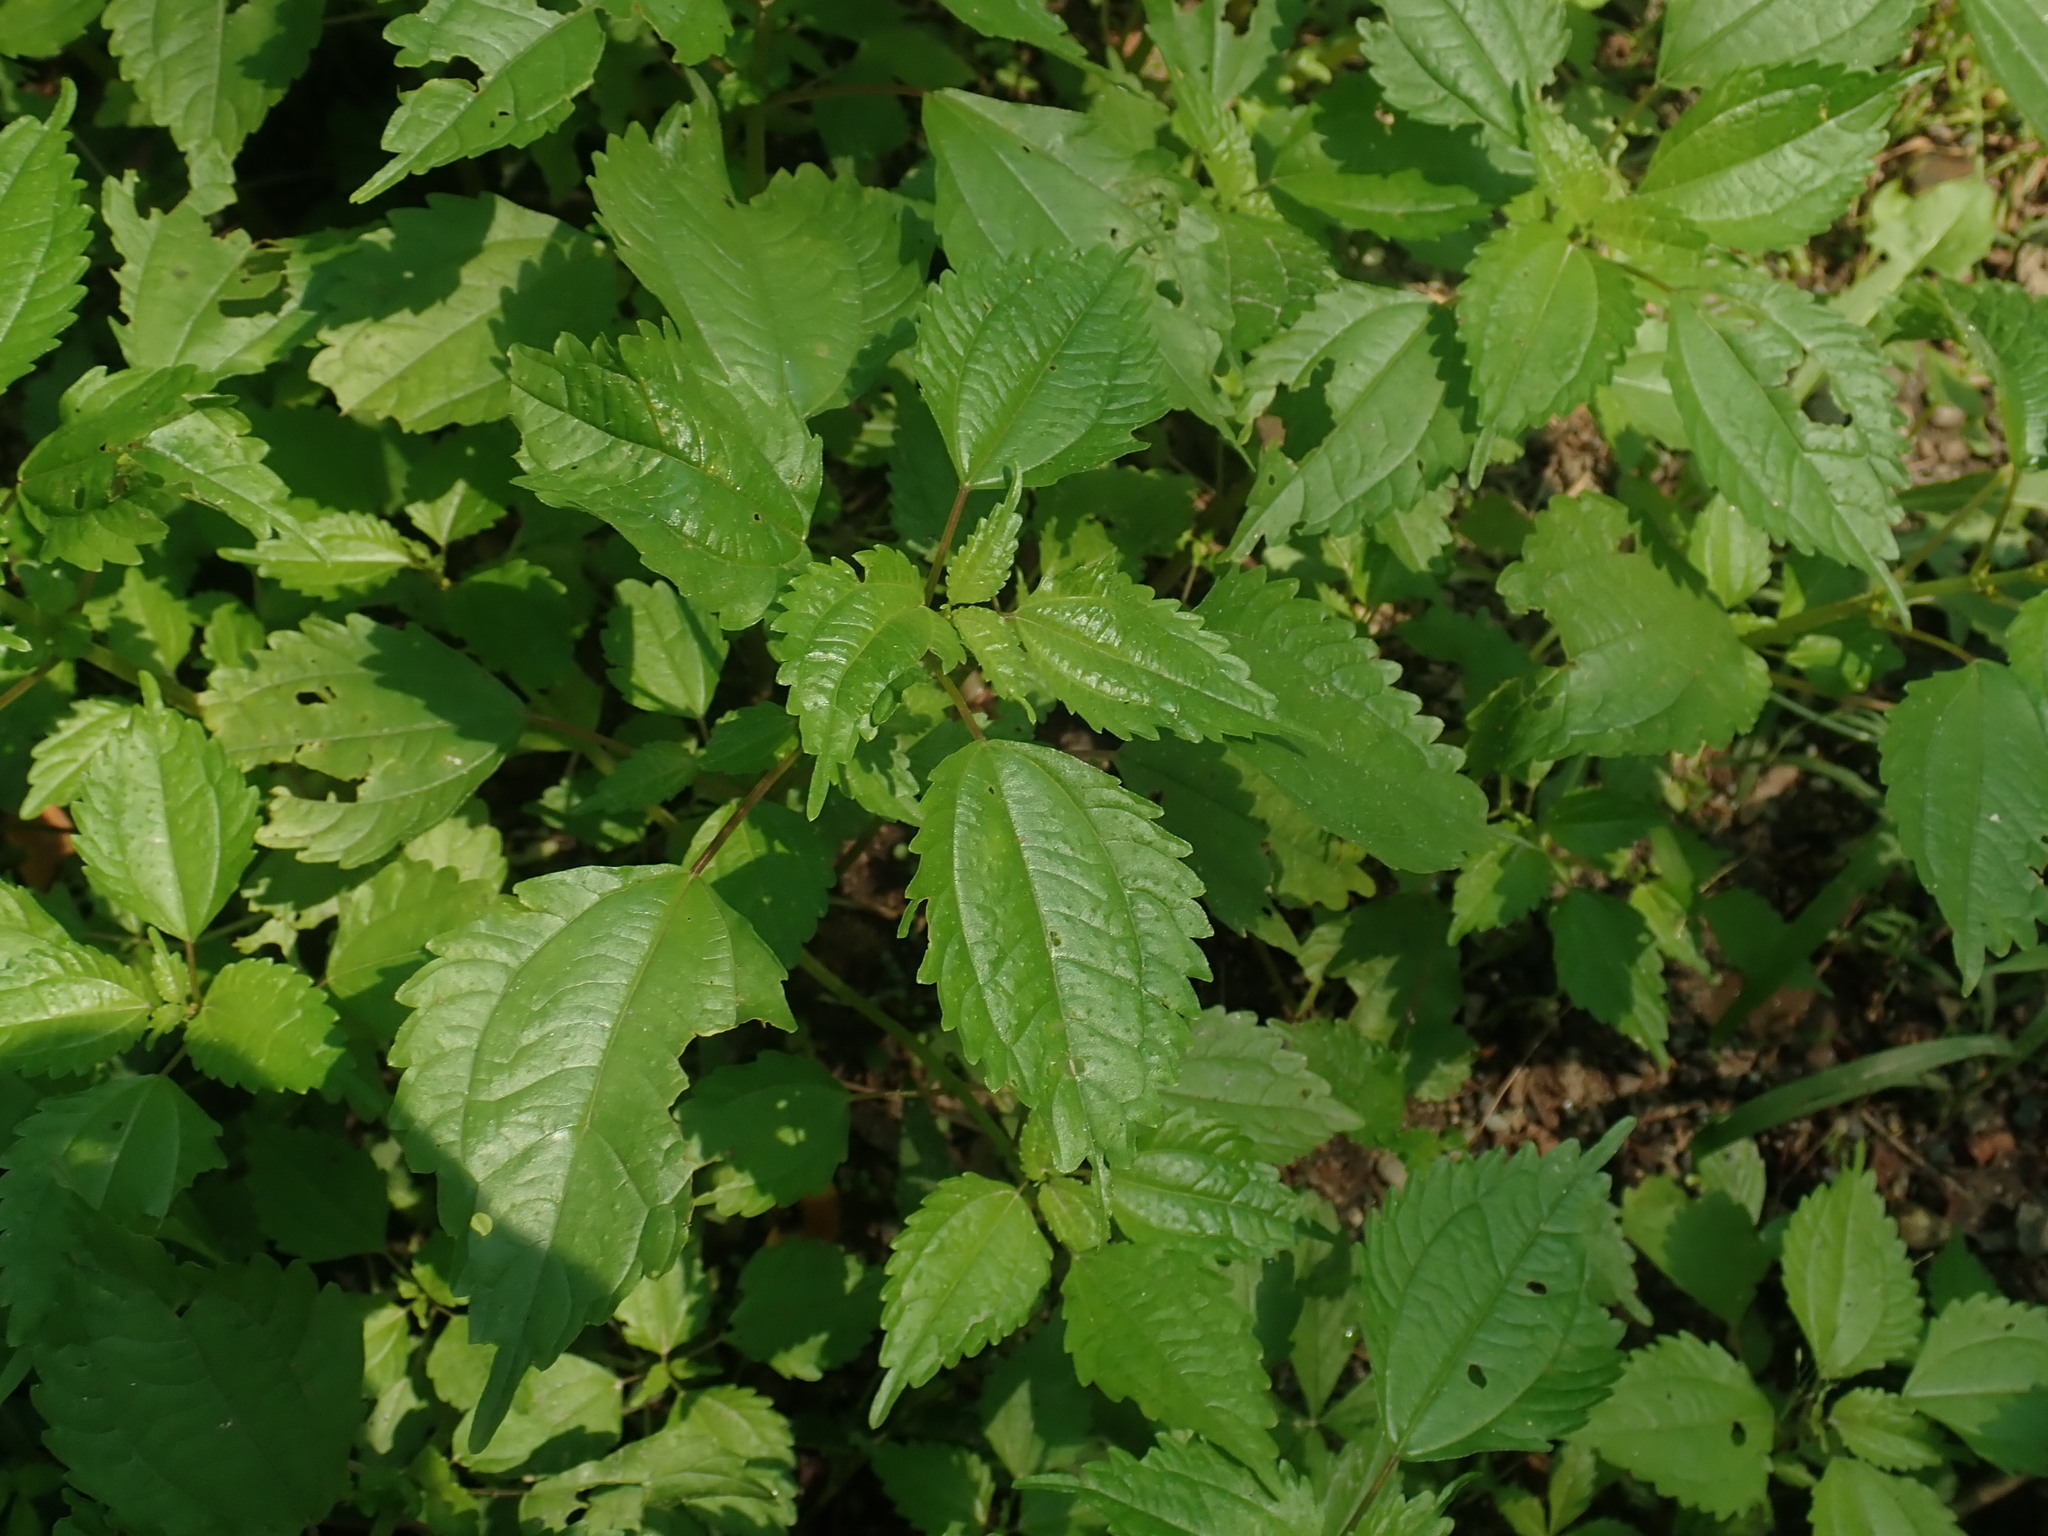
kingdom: Plantae
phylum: Tracheophyta
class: Magnoliopsida
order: Rosales
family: Urticaceae
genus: Pilea
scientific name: Pilea pumila
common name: Clearweed
